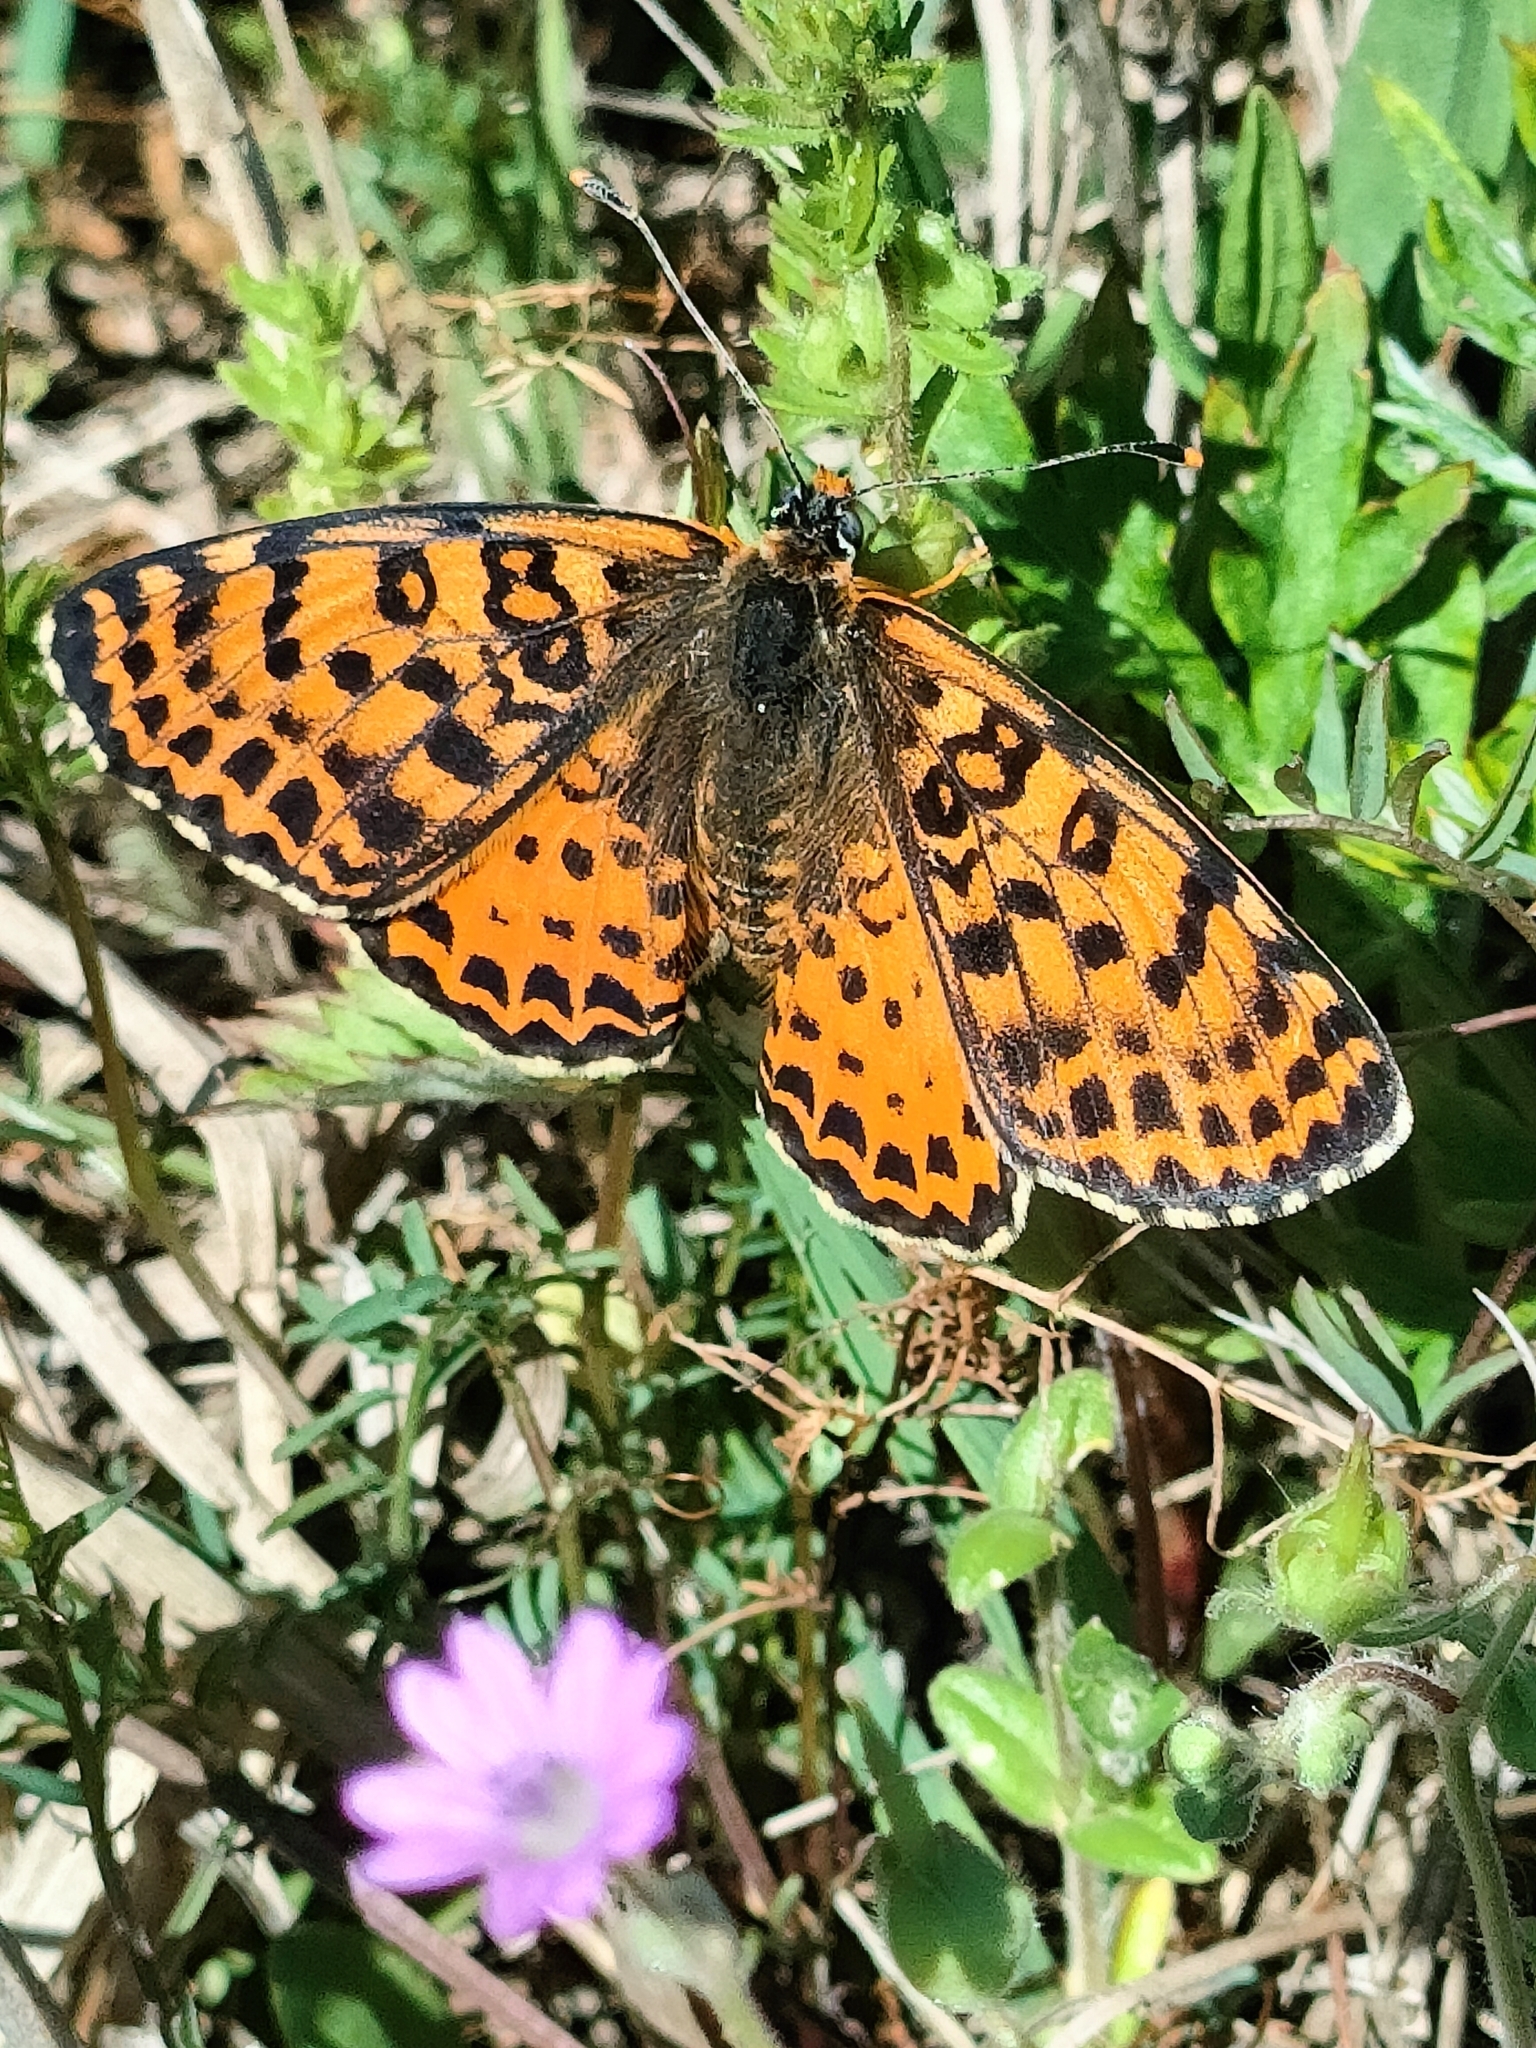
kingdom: Animalia
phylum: Arthropoda
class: Insecta
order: Lepidoptera
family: Nymphalidae
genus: Melitaea
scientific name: Melitaea didyma
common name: Spotted fritillary
